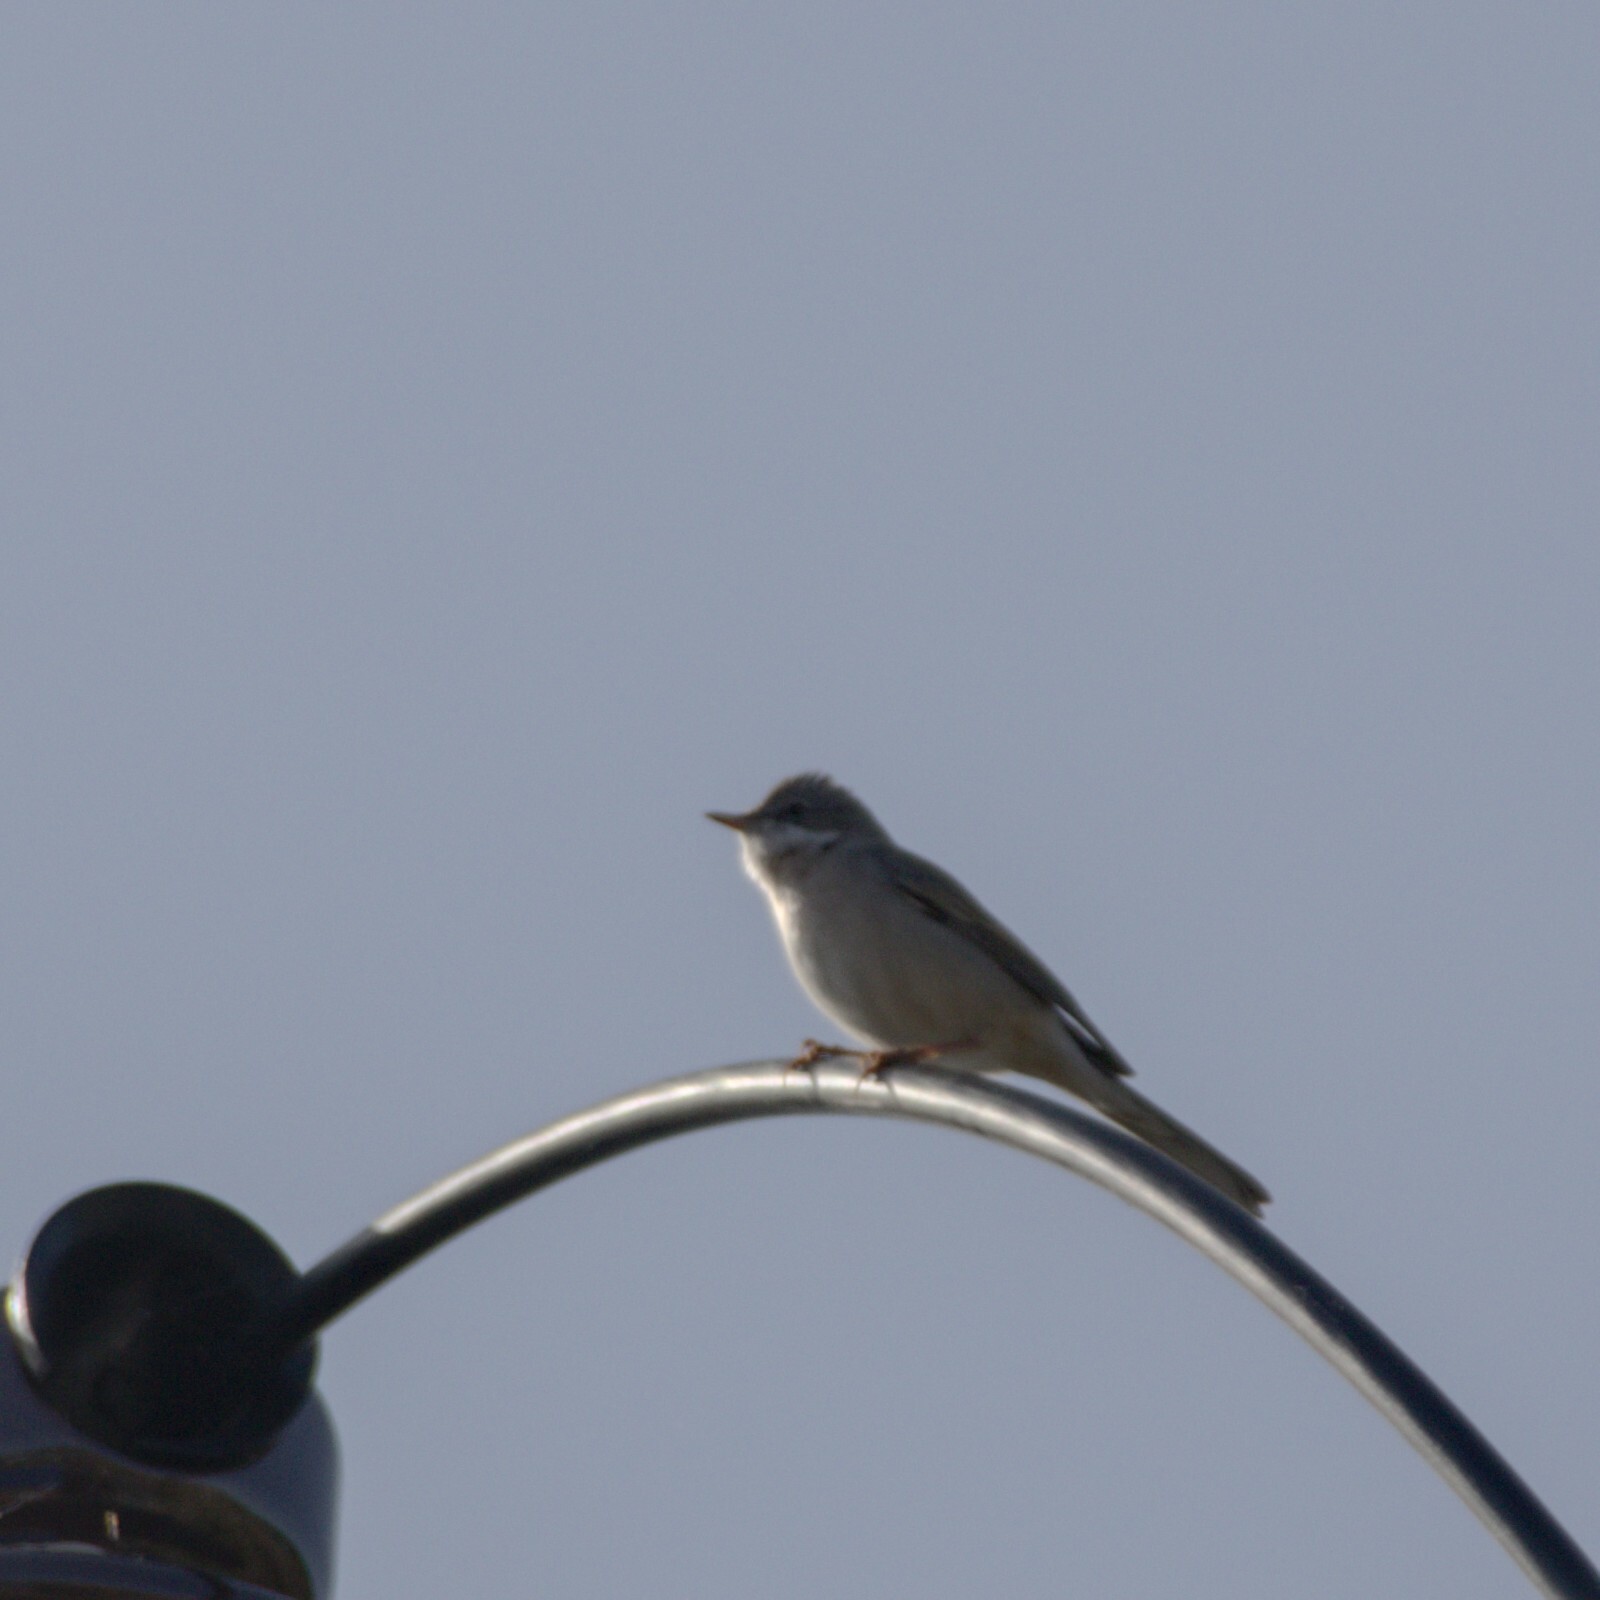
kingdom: Animalia
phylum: Chordata
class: Aves
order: Passeriformes
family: Sylviidae
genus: Sylvia
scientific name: Sylvia communis
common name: Common whitethroat
